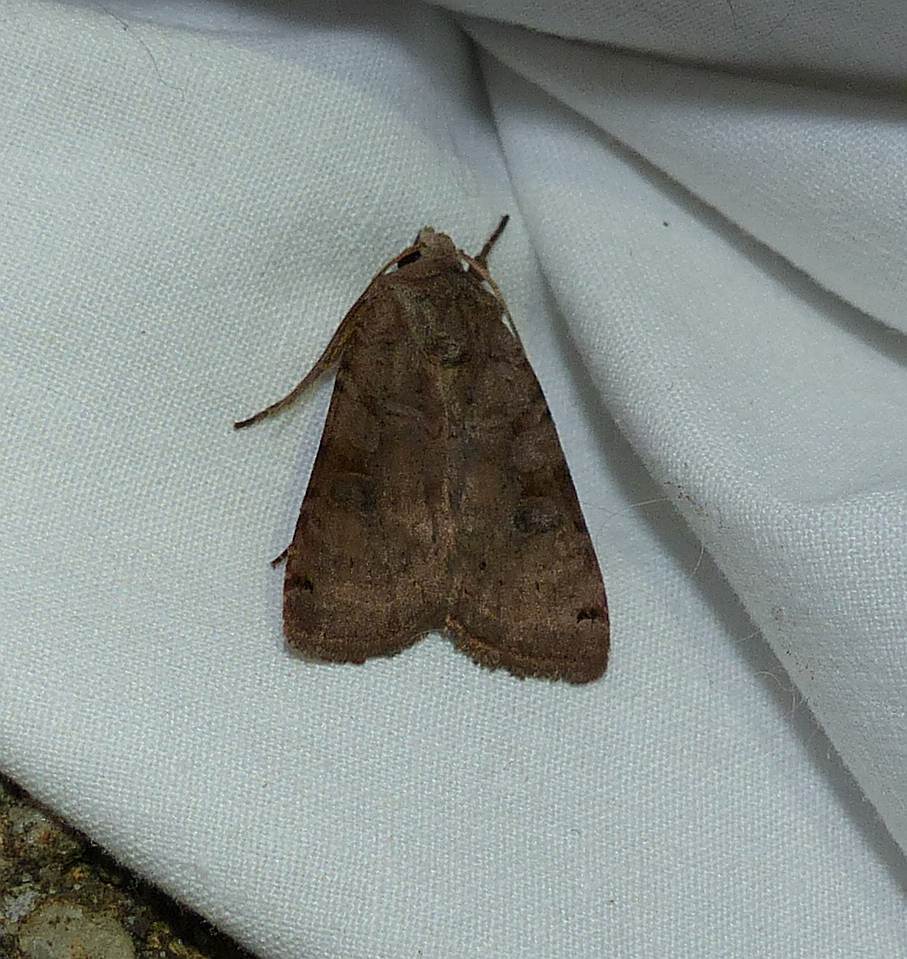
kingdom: Animalia
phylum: Arthropoda
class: Insecta
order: Lepidoptera
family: Noctuidae
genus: Xestia
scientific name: Xestia smithii
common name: Smith's dart
